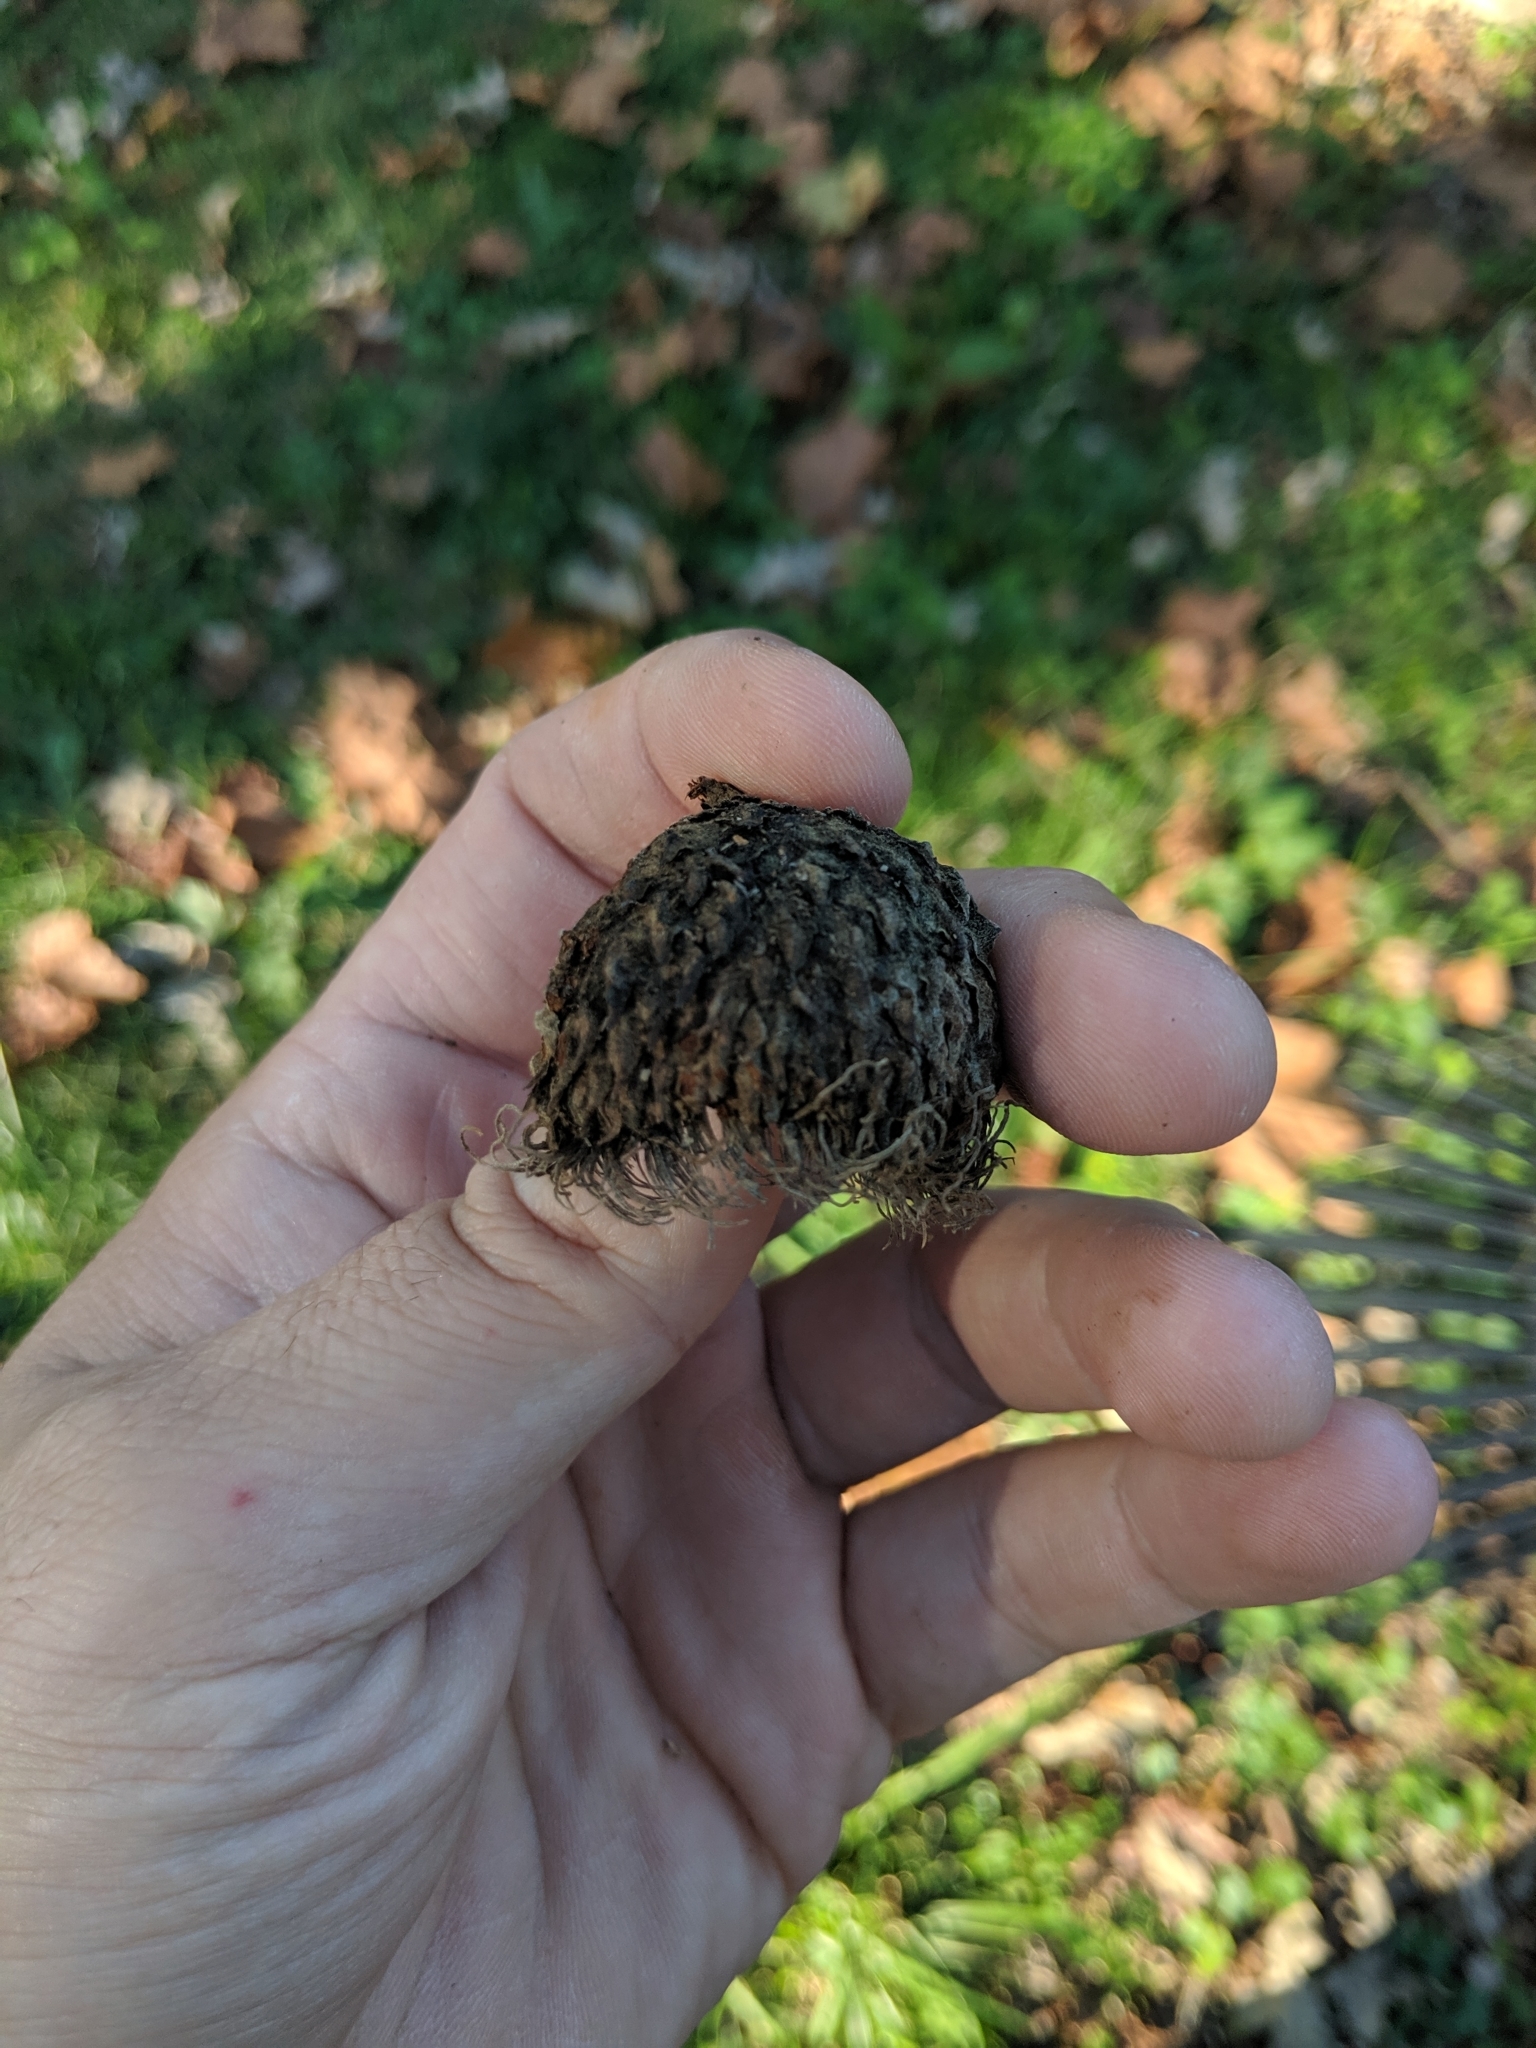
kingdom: Plantae
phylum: Tracheophyta
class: Magnoliopsida
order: Fagales
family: Fagaceae
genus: Quercus
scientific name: Quercus macrocarpa
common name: Bur oak
